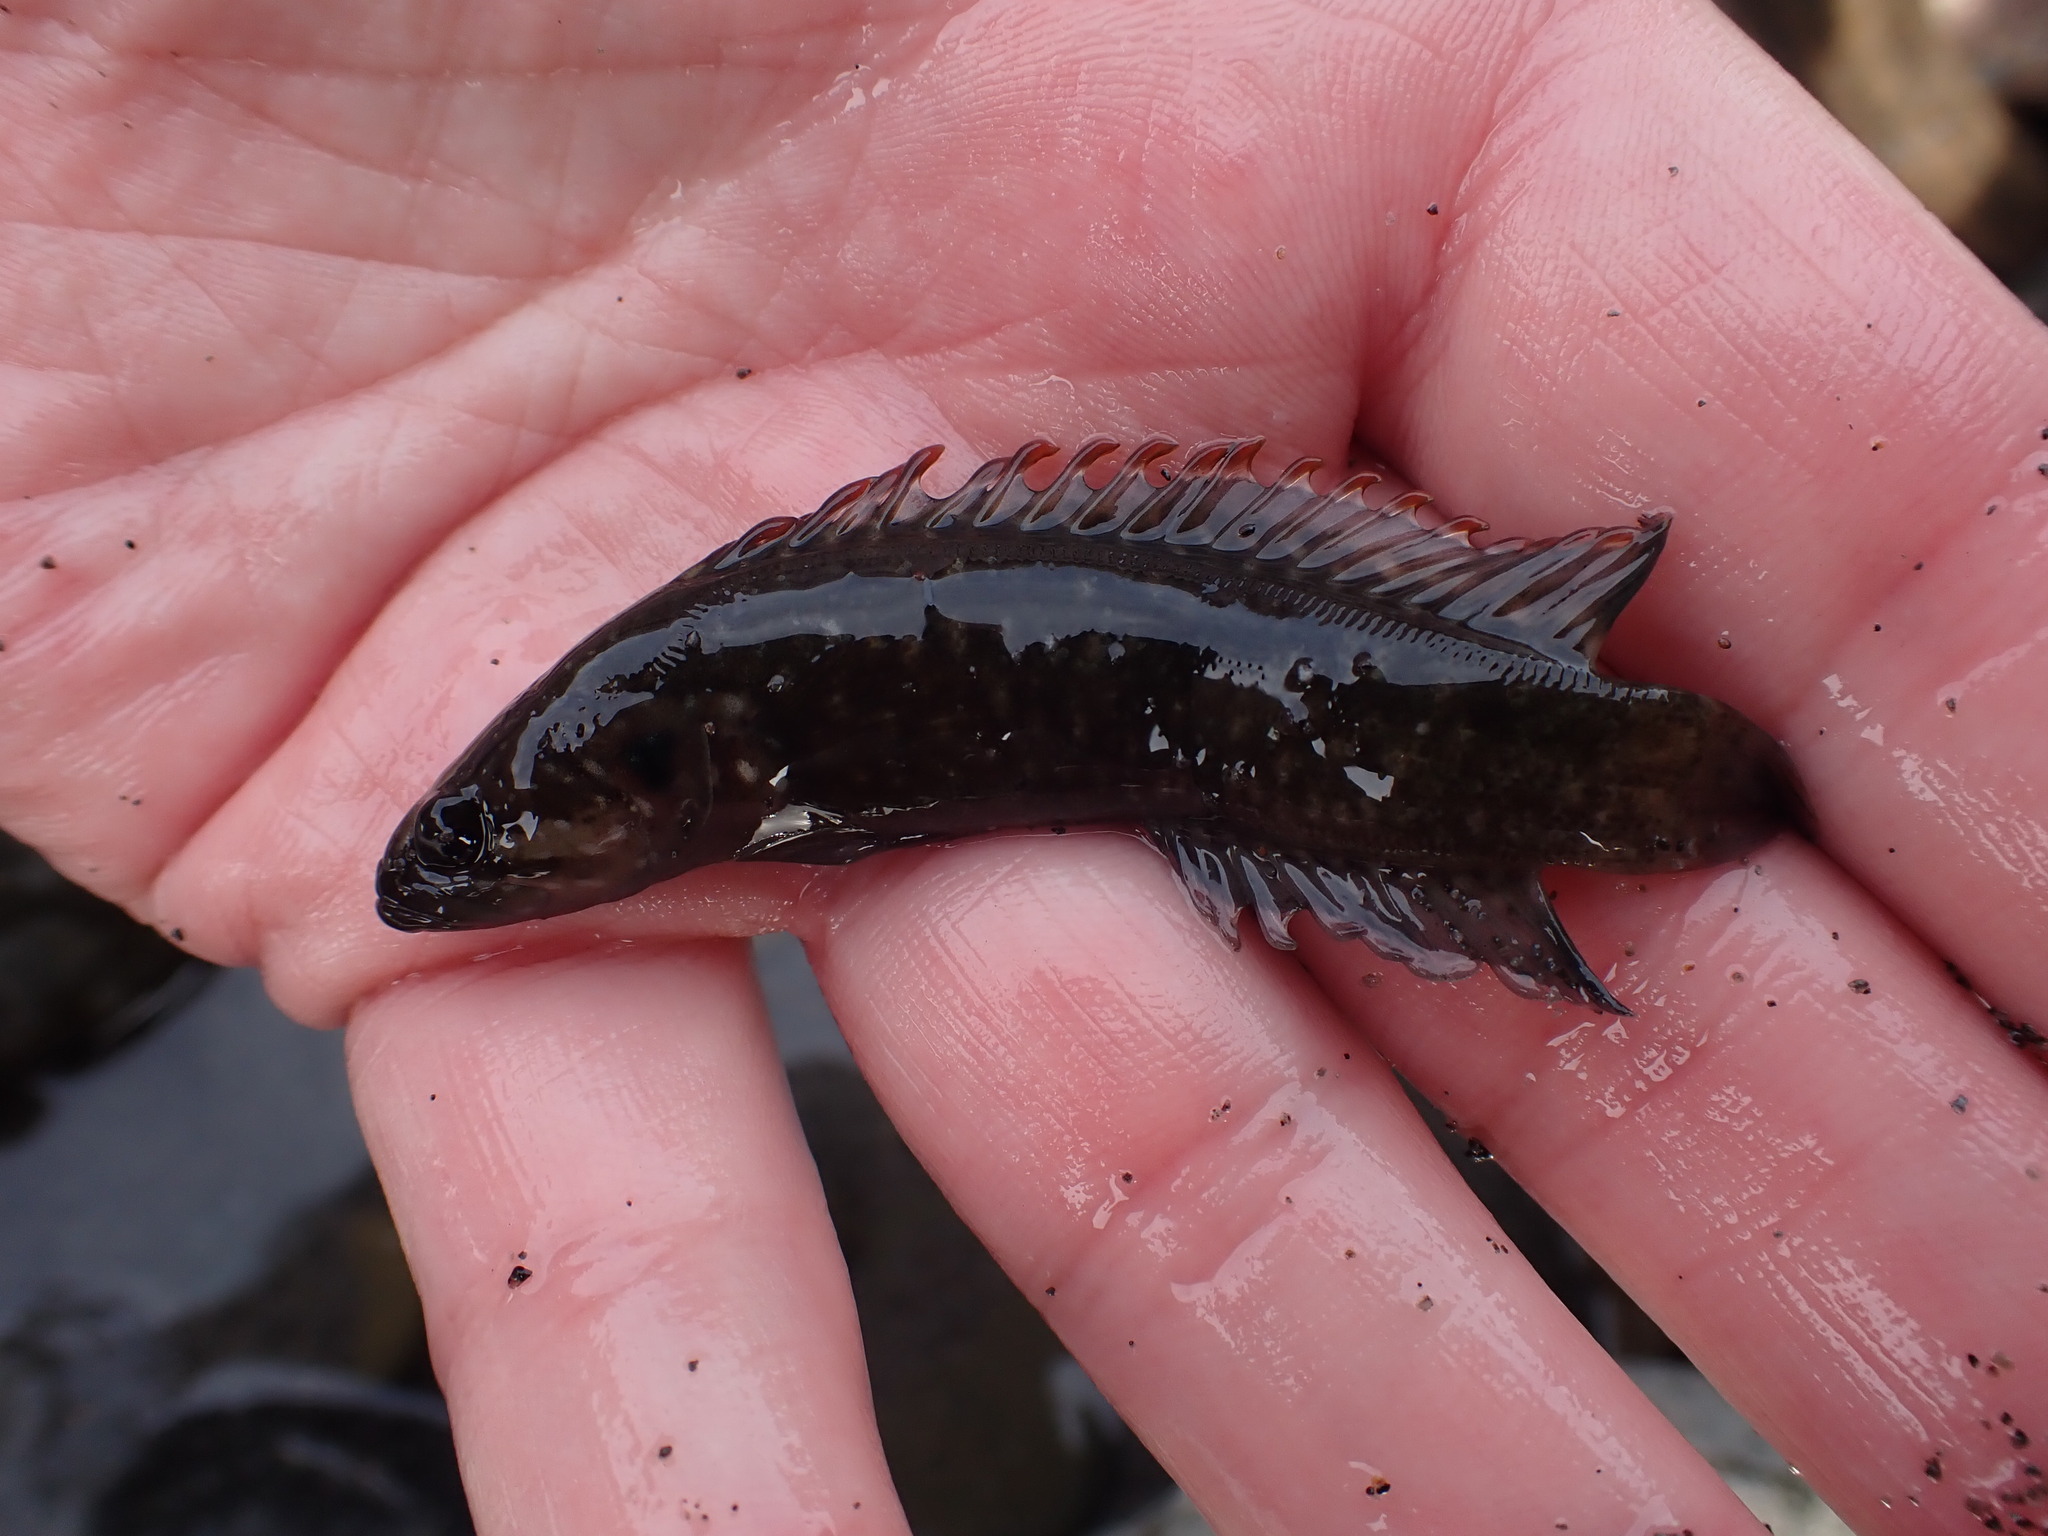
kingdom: Animalia
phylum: Chordata
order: Perciformes
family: Plesiopidae
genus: Acanthoclinus
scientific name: Acanthoclinus fuscus
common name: Olive rockfish
